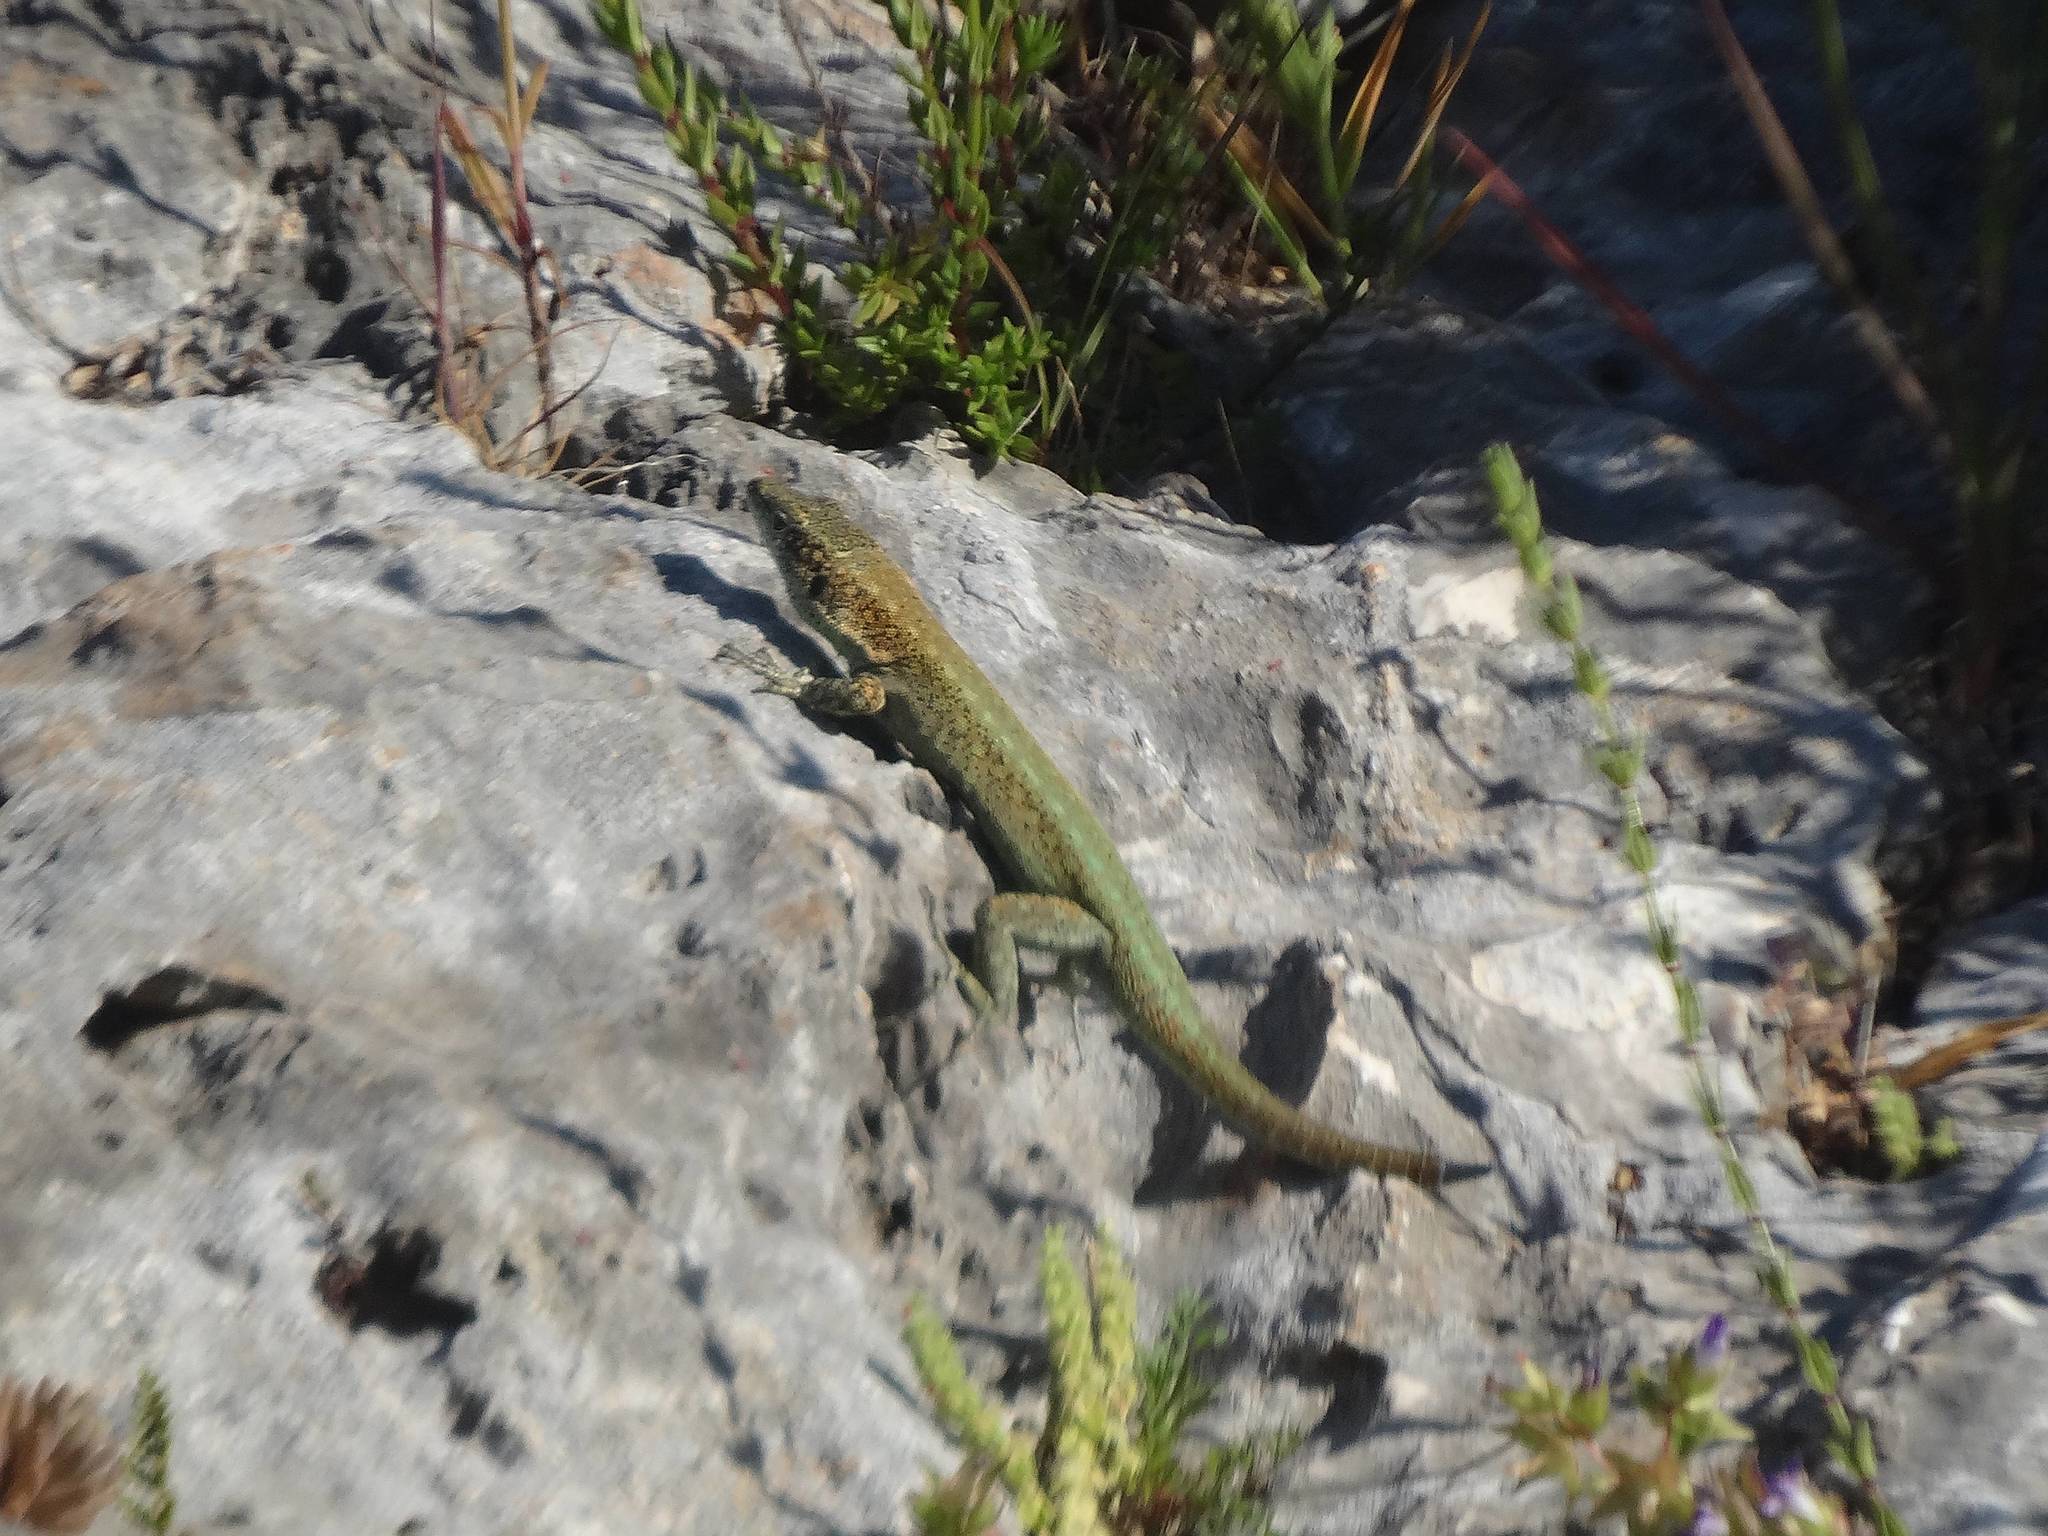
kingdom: Animalia
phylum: Chordata
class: Squamata
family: Lacertidae
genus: Anatololacerta
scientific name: Anatololacerta finikensis
